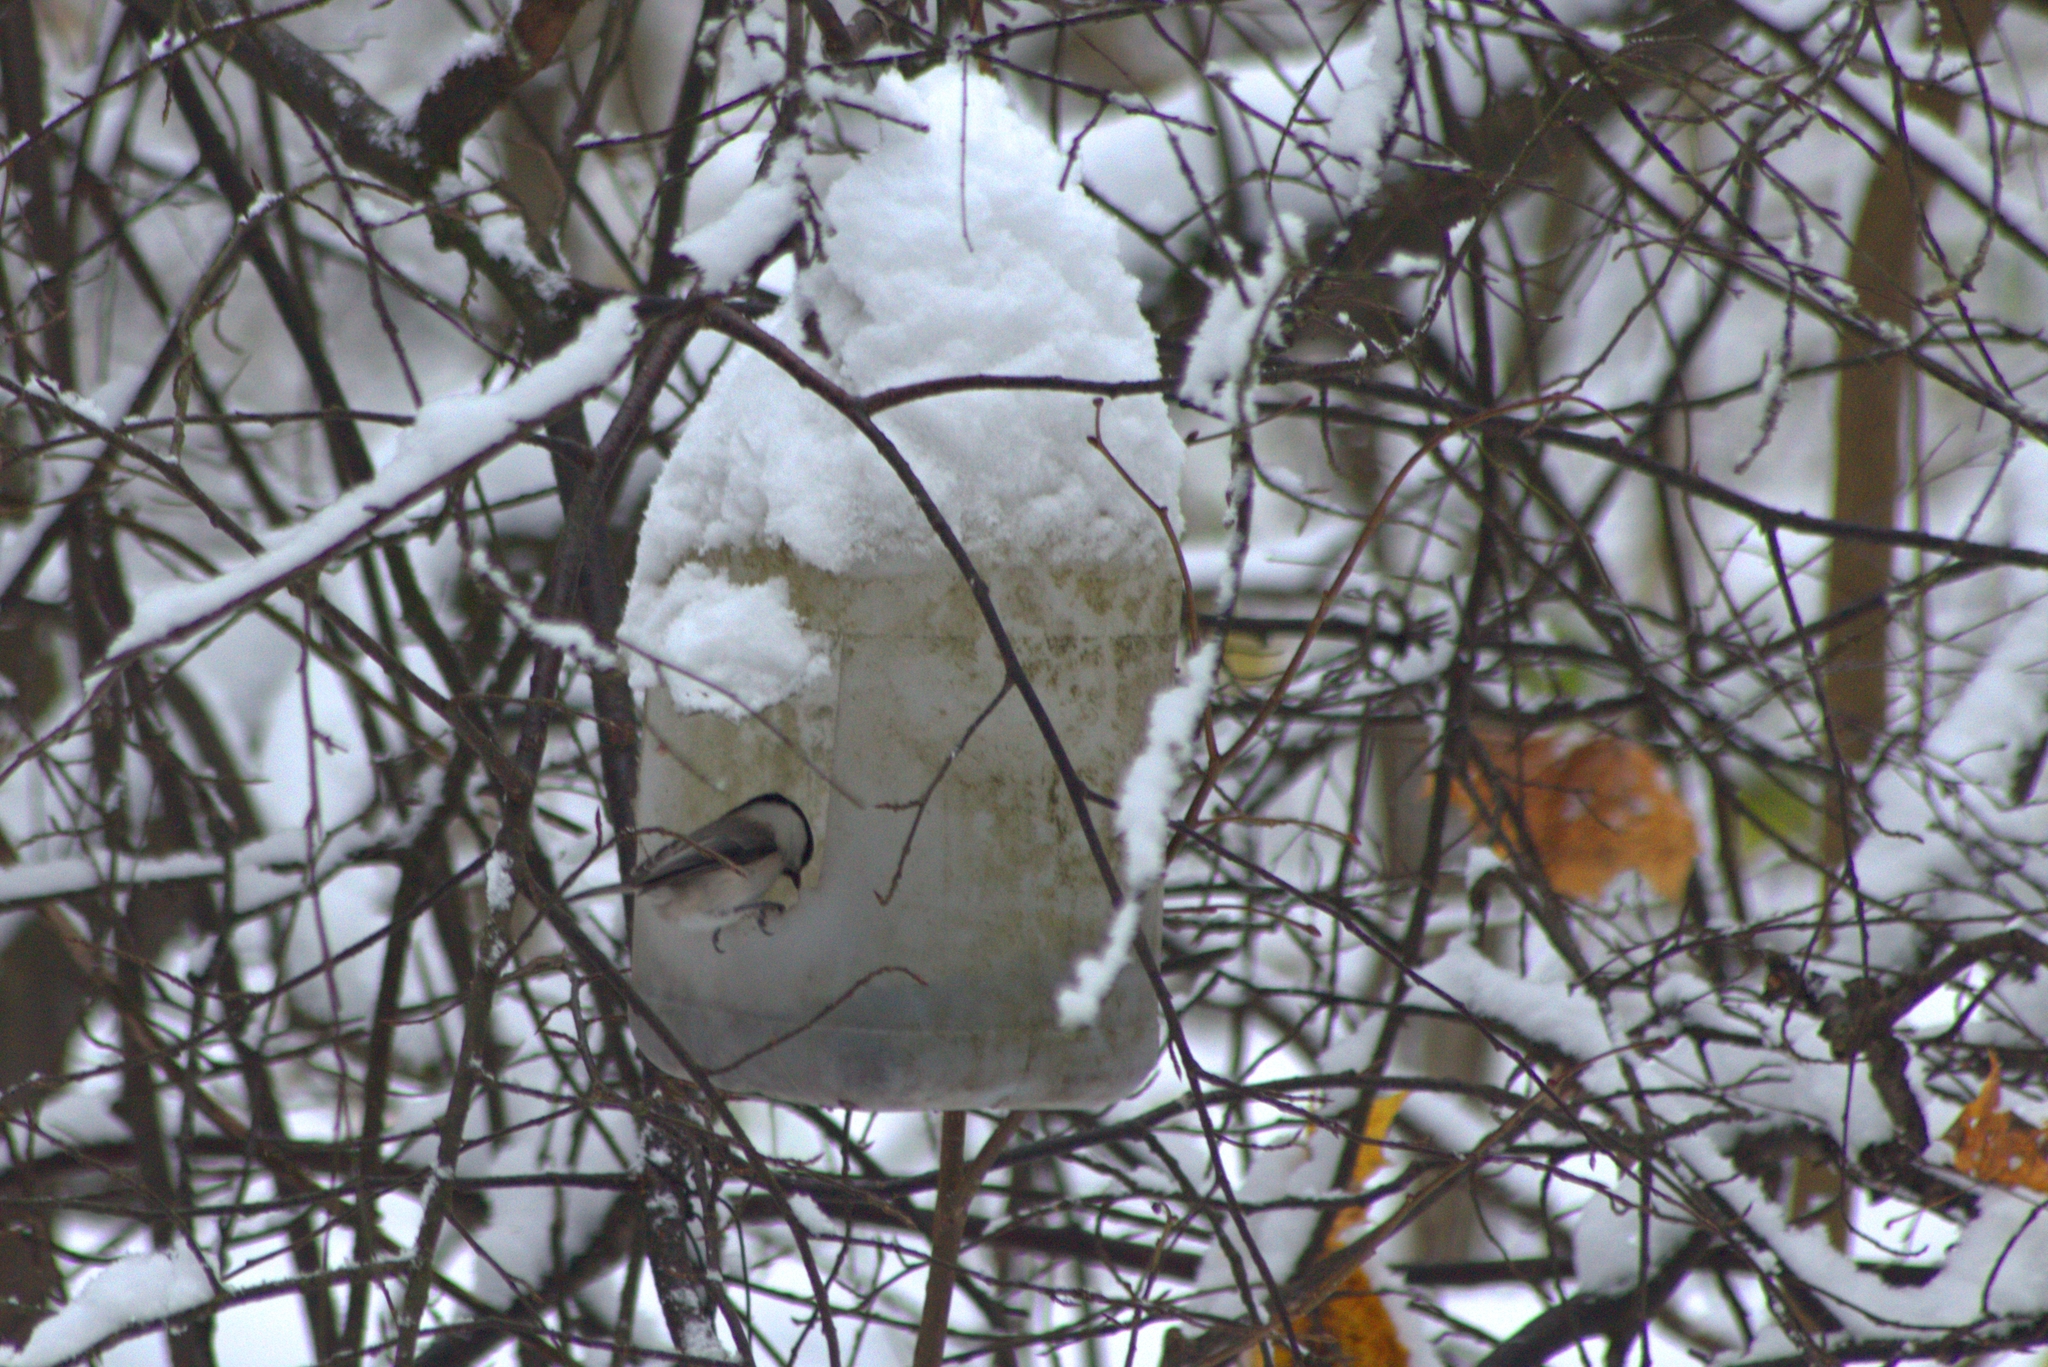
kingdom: Animalia
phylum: Chordata
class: Aves
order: Passeriformes
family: Paridae
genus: Poecile
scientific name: Poecile montanus
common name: Willow tit
